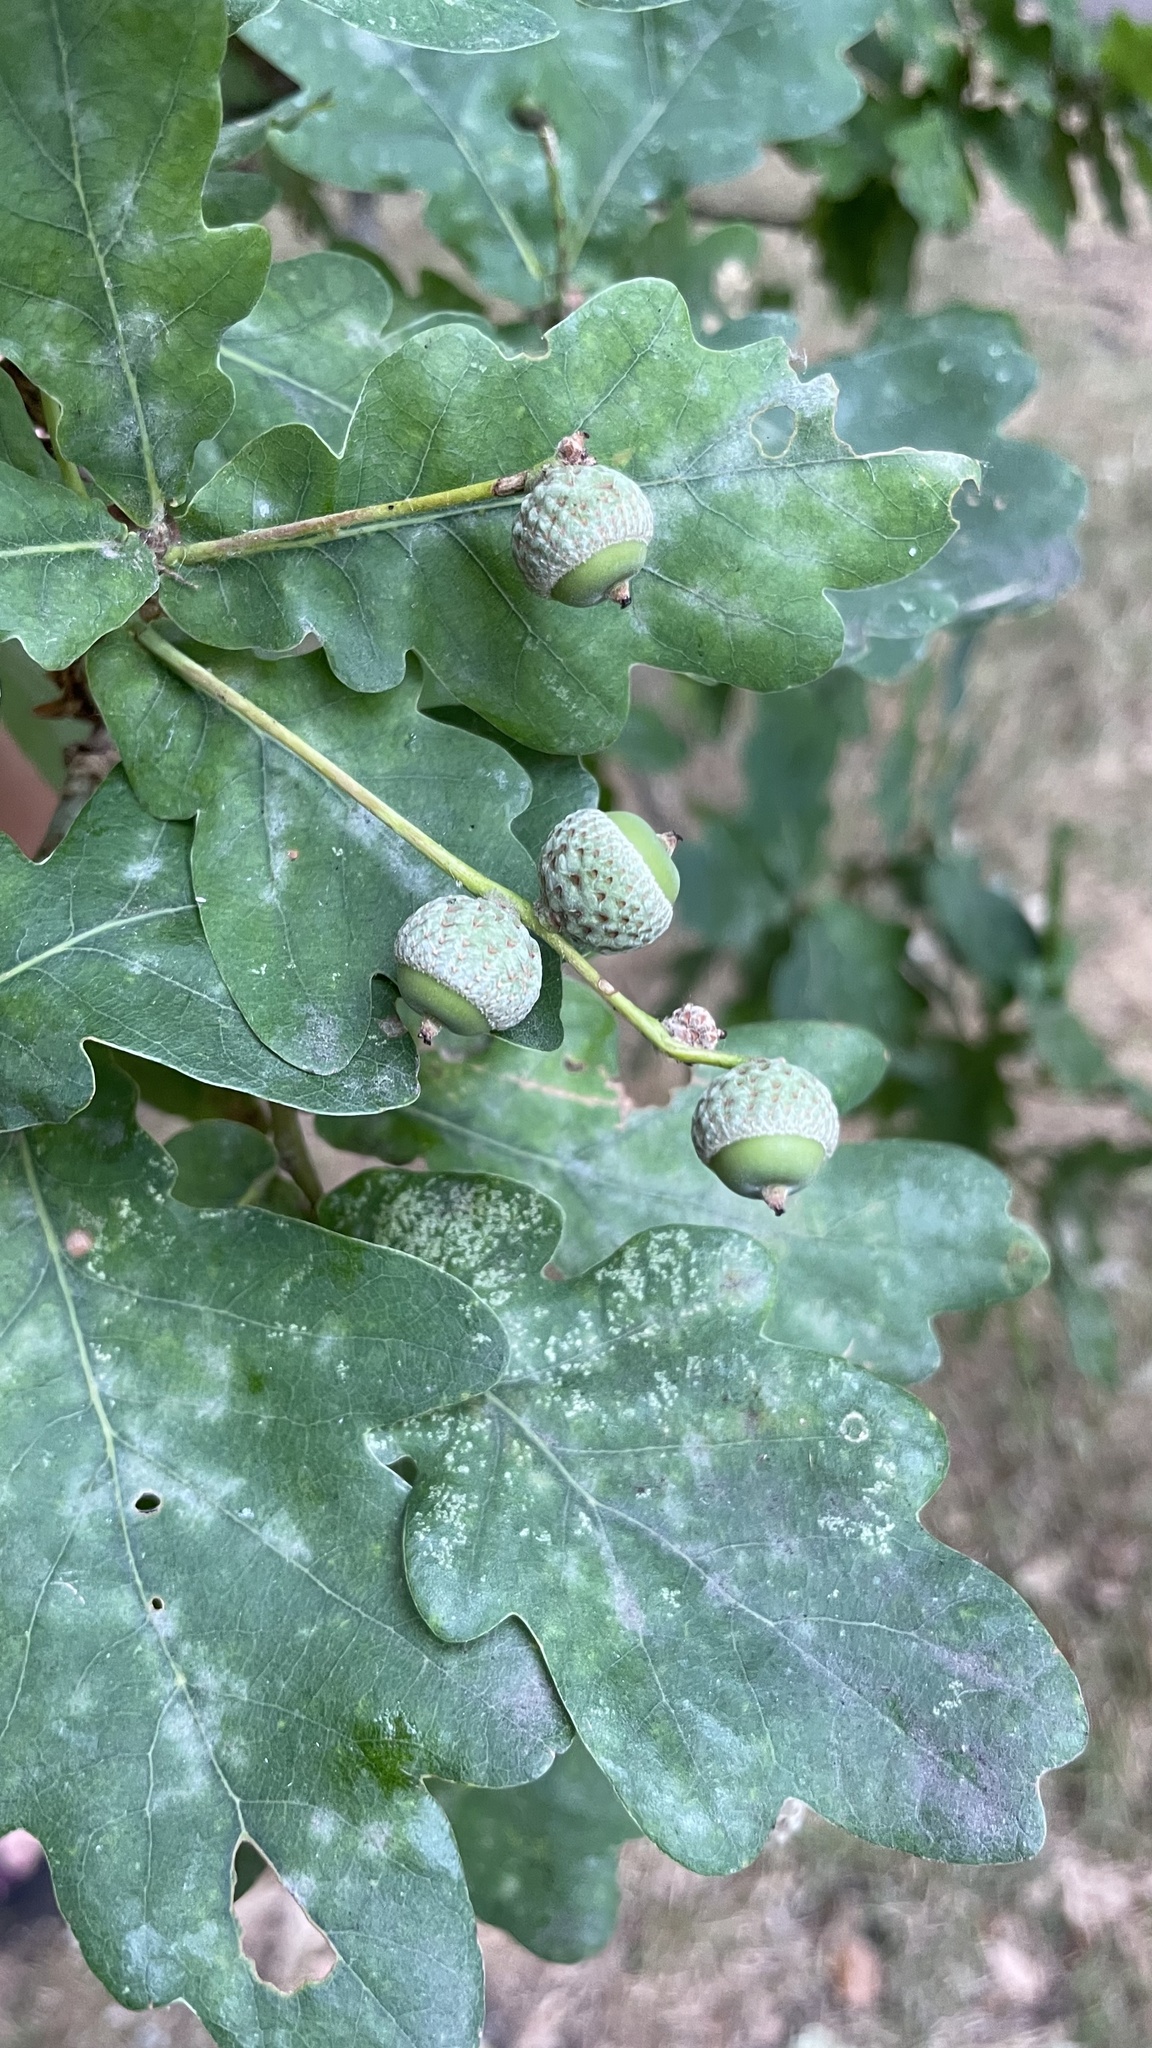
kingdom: Plantae
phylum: Tracheophyta
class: Magnoliopsida
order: Fagales
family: Fagaceae
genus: Quercus
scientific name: Quercus robur
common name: Pedunculate oak
